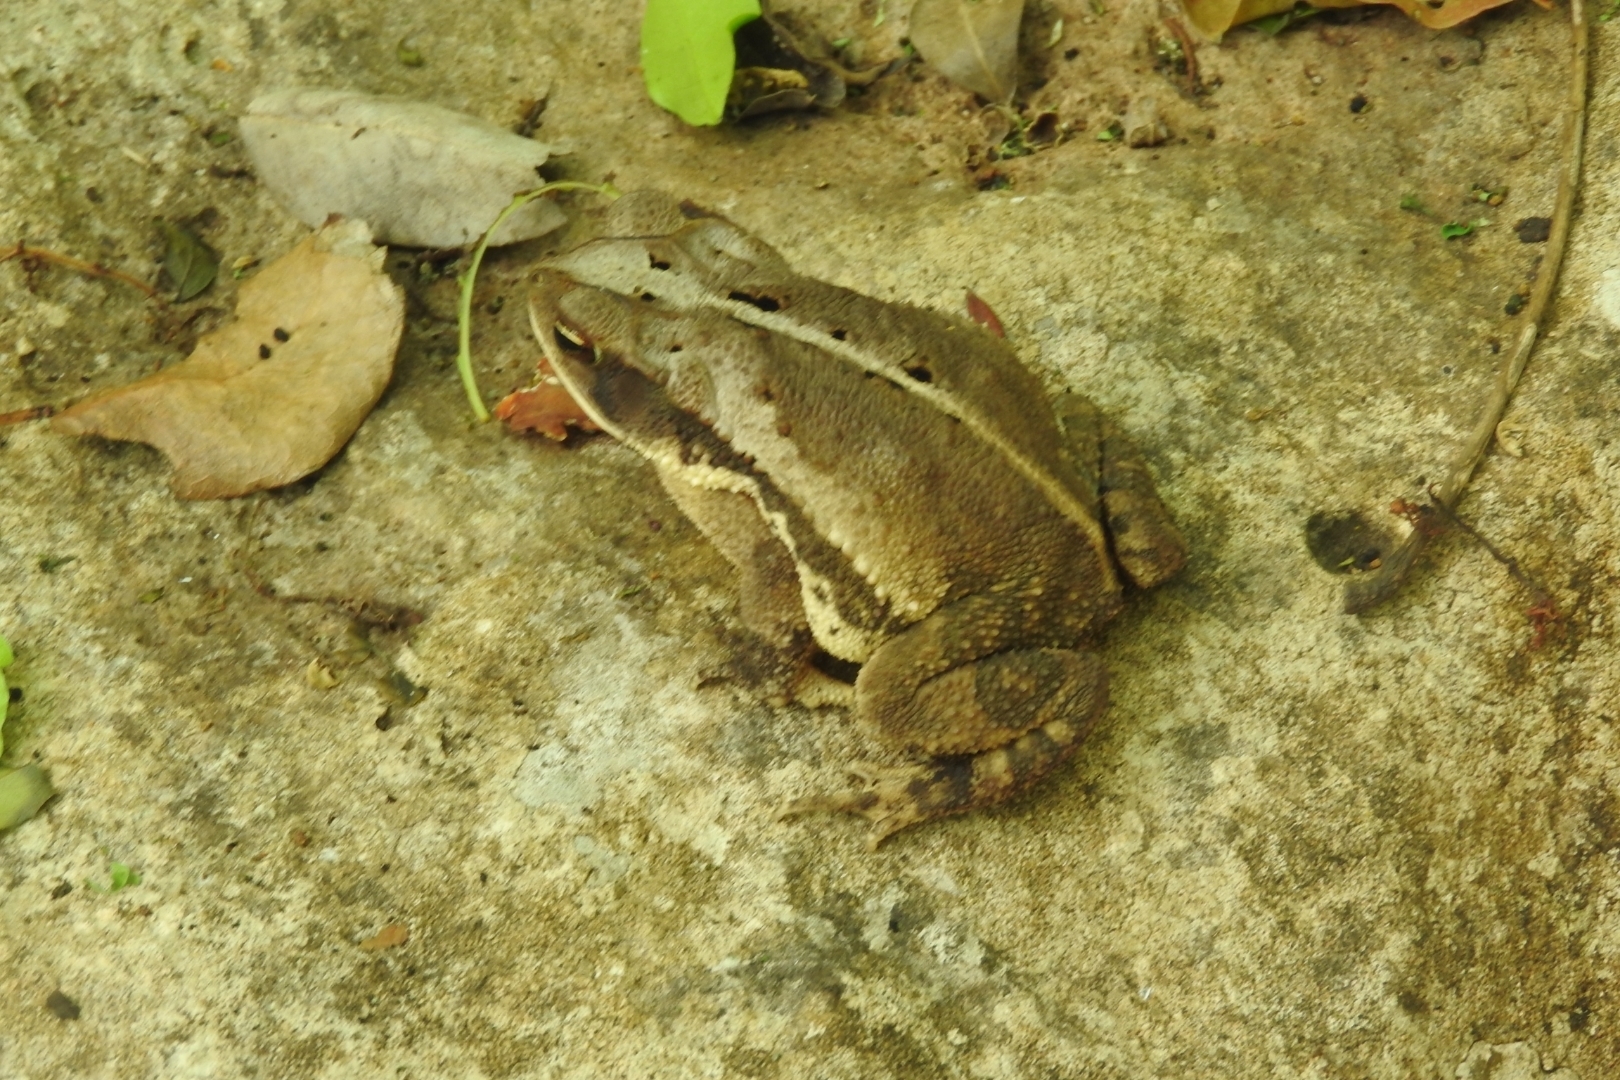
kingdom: Animalia
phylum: Chordata
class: Amphibia
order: Anura
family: Bufonidae
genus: Incilius
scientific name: Incilius valliceps
